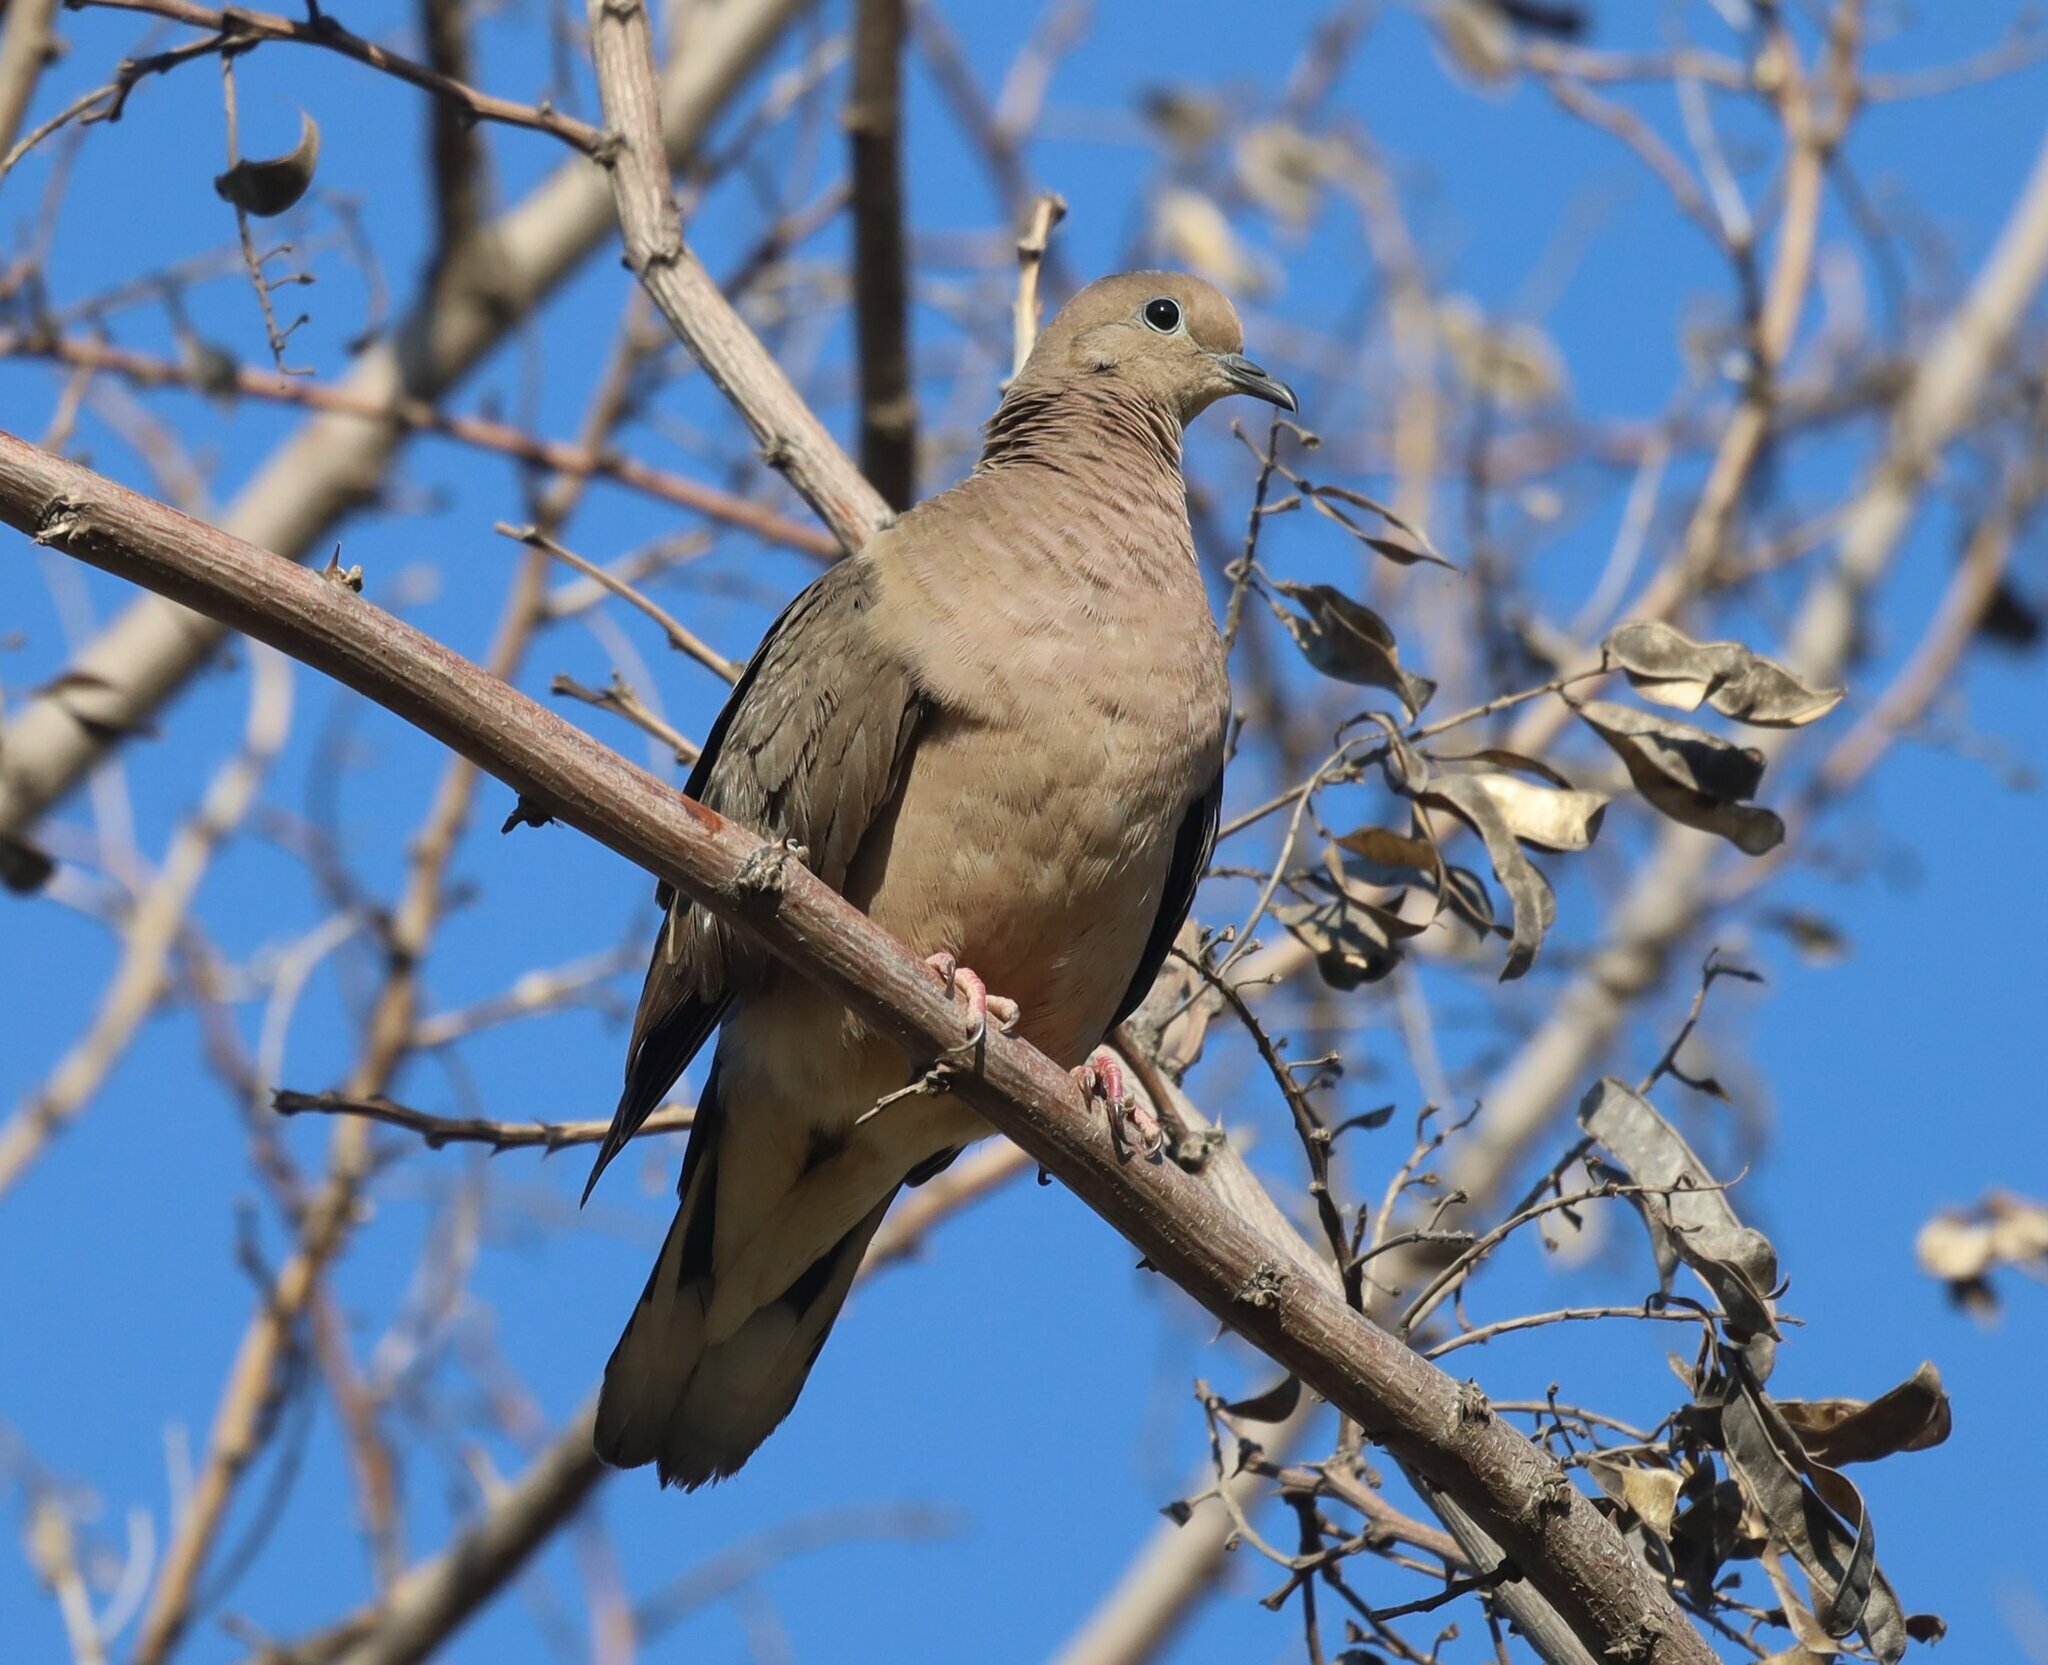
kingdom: Animalia
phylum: Chordata
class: Aves
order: Columbiformes
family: Columbidae
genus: Zenaida
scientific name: Zenaida auriculata
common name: Eared dove
